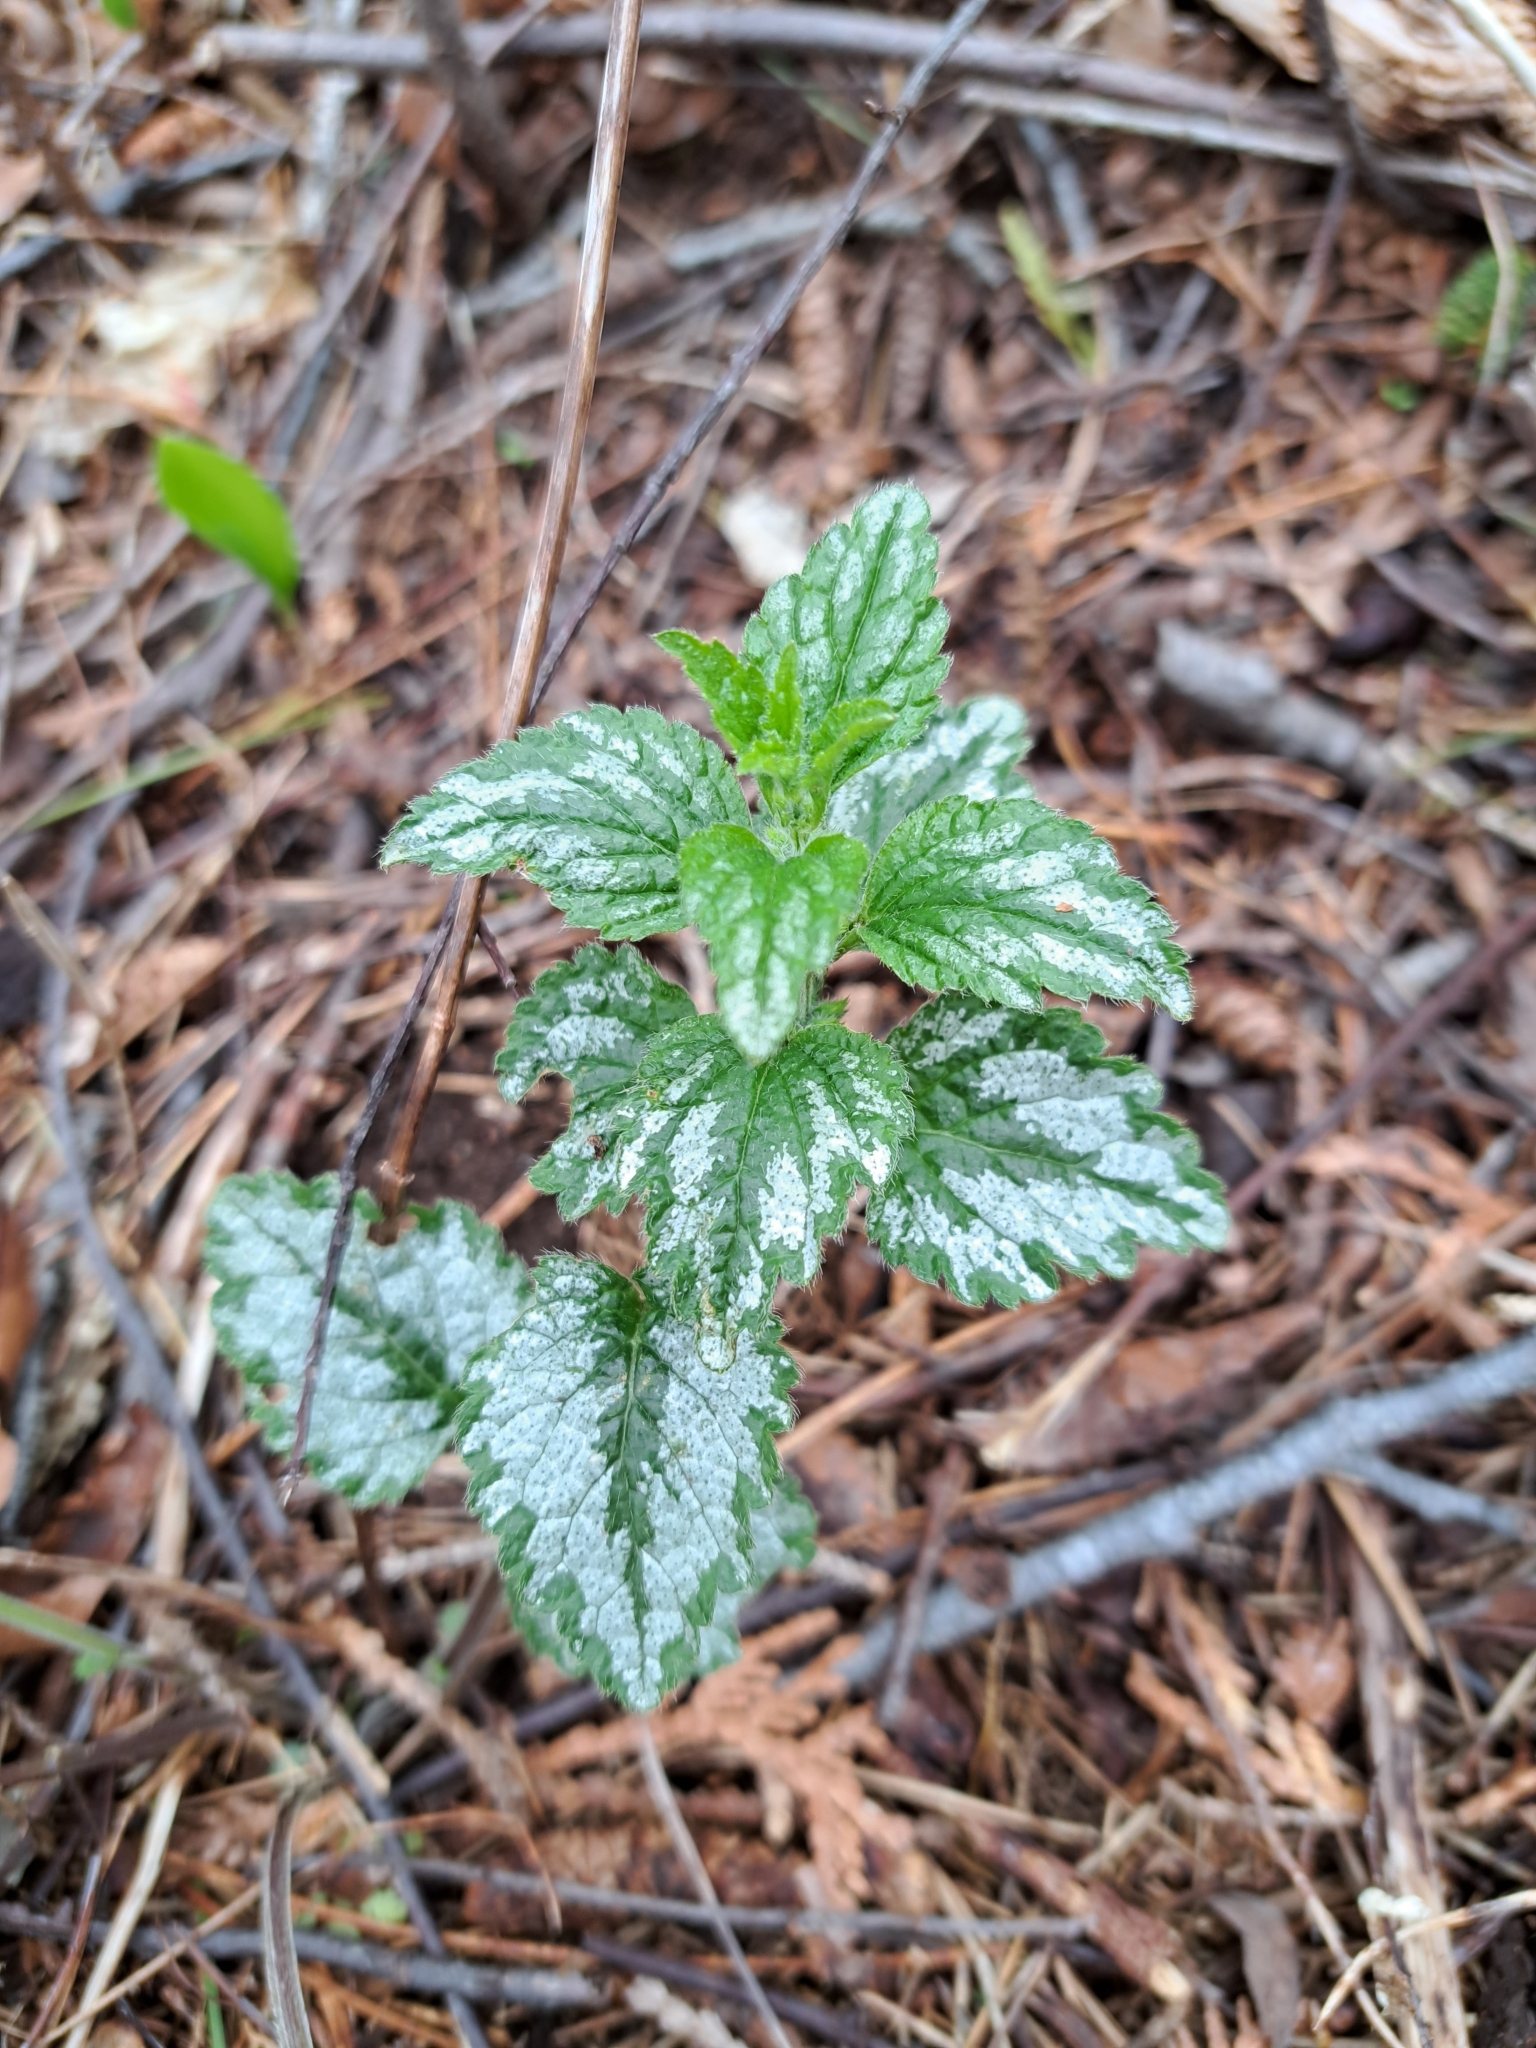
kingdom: Plantae
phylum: Tracheophyta
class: Magnoliopsida
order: Lamiales
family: Lamiaceae
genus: Lamium
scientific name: Lamium galeobdolon
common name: Yellow archangel
